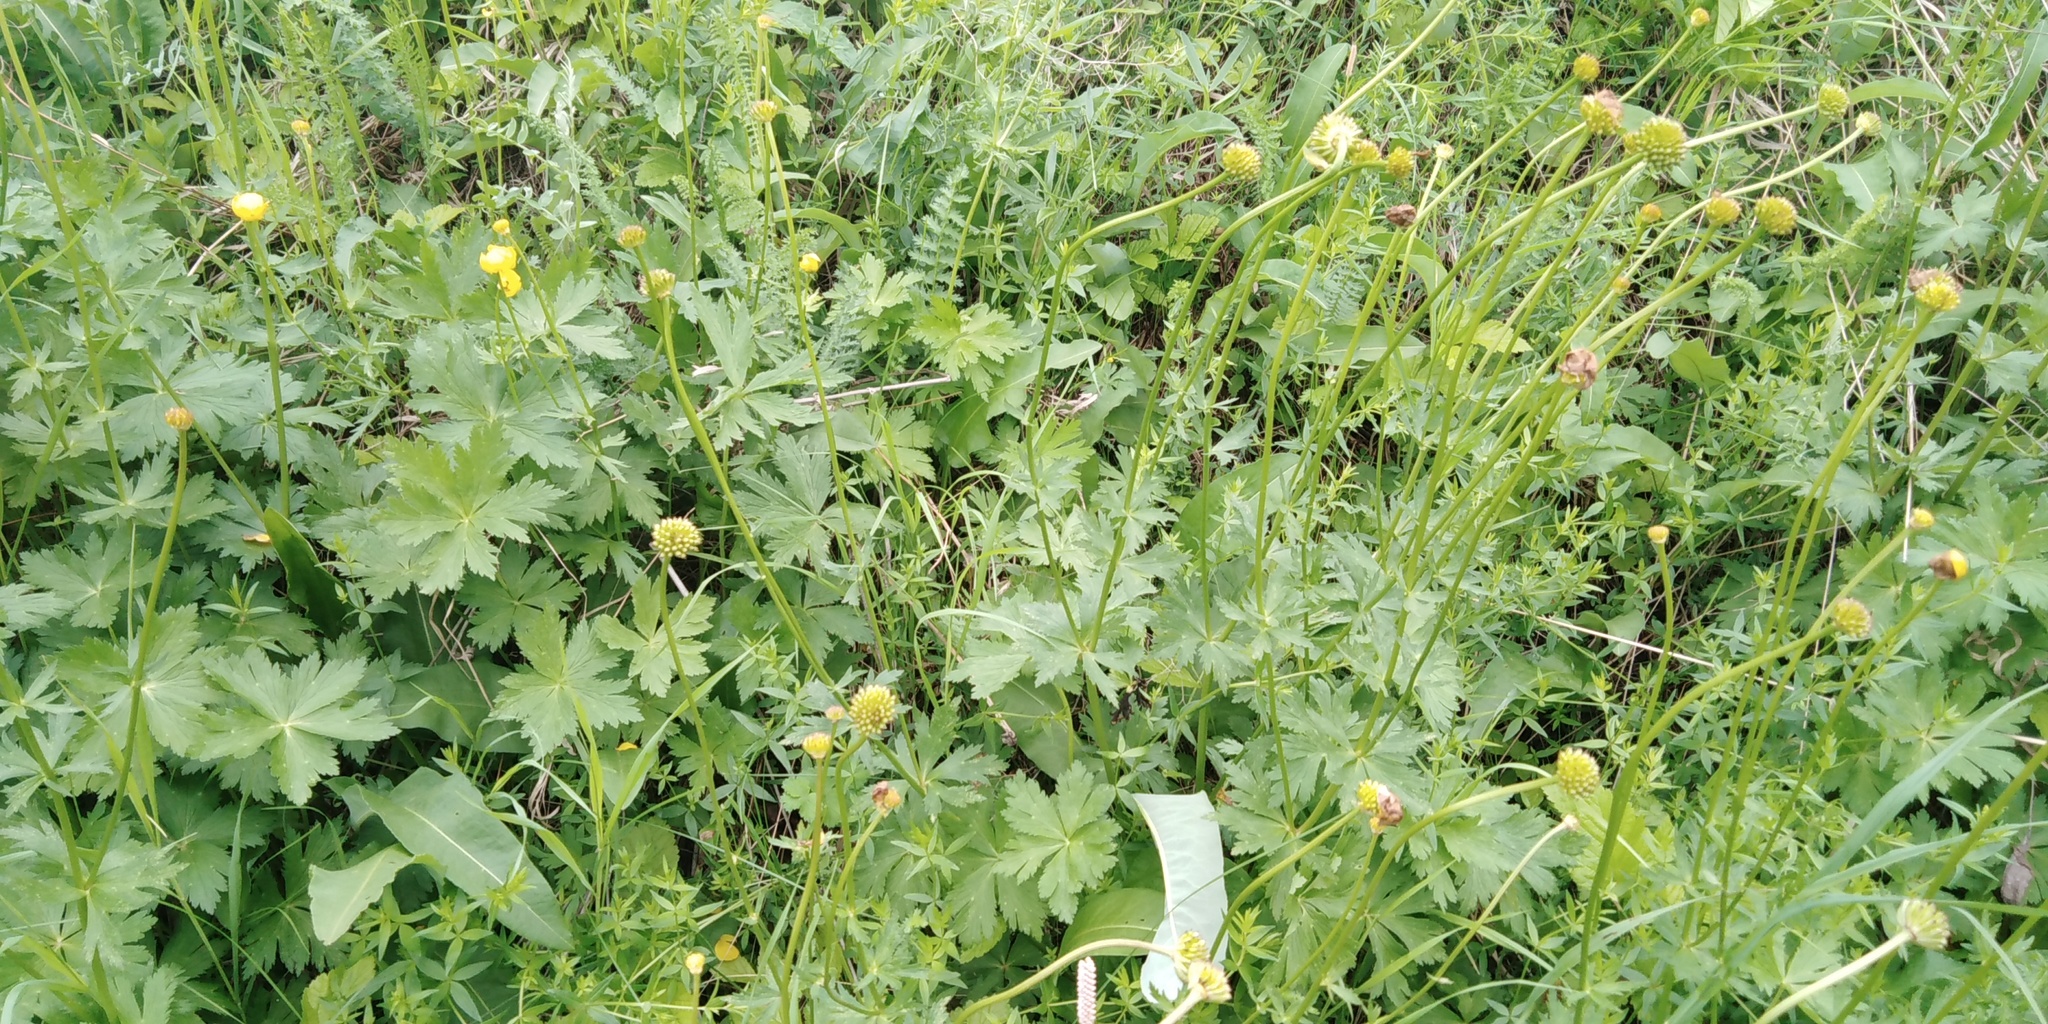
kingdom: Plantae
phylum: Tracheophyta
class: Magnoliopsida
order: Ranunculales
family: Ranunculaceae
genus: Trollius
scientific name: Trollius europaeus
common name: European globeflower
